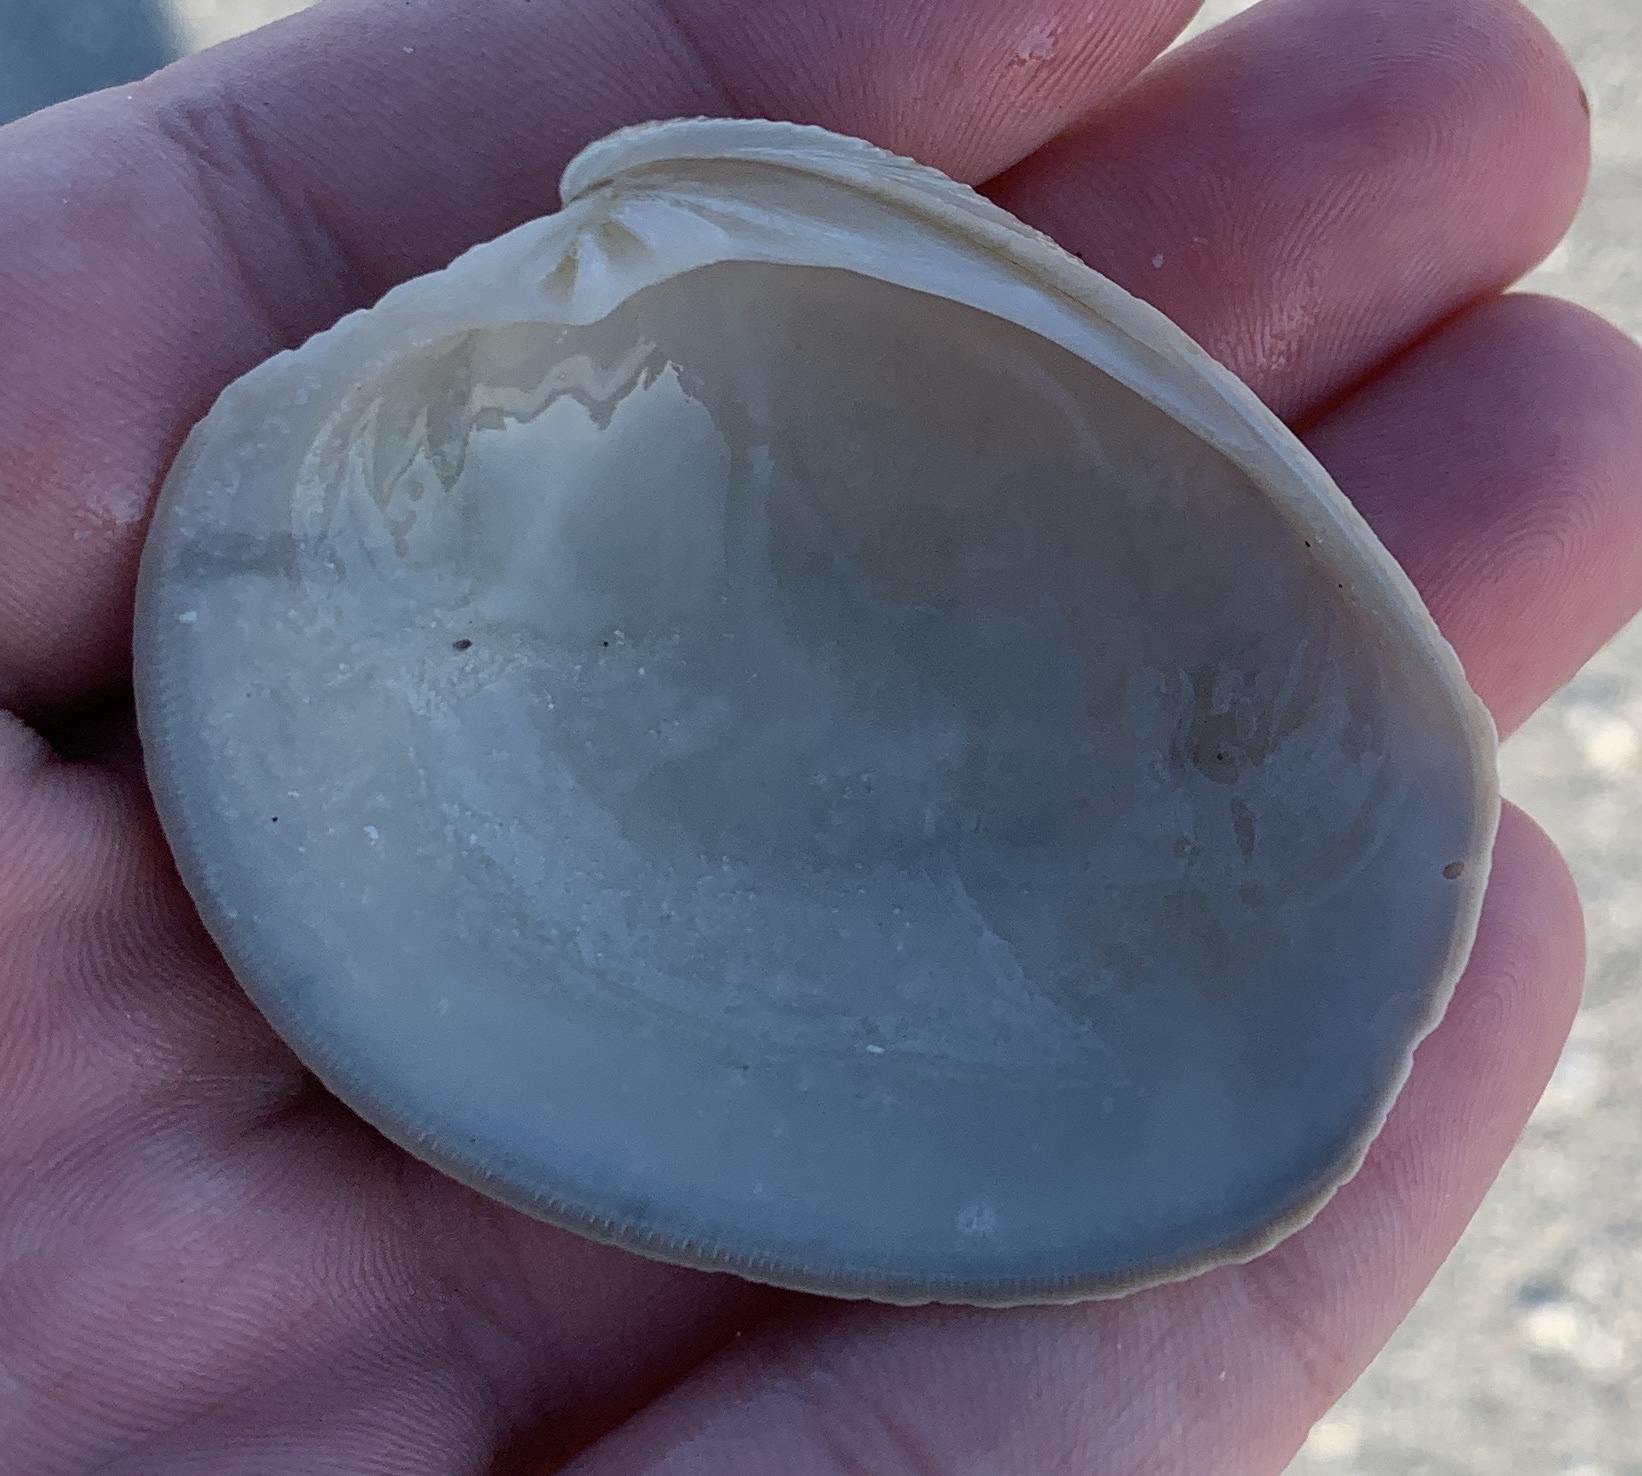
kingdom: Animalia
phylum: Mollusca
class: Bivalvia
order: Venerida
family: Veneridae
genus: Mercenaria
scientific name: Mercenaria campechiensis
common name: Südliche quahog-muschel
